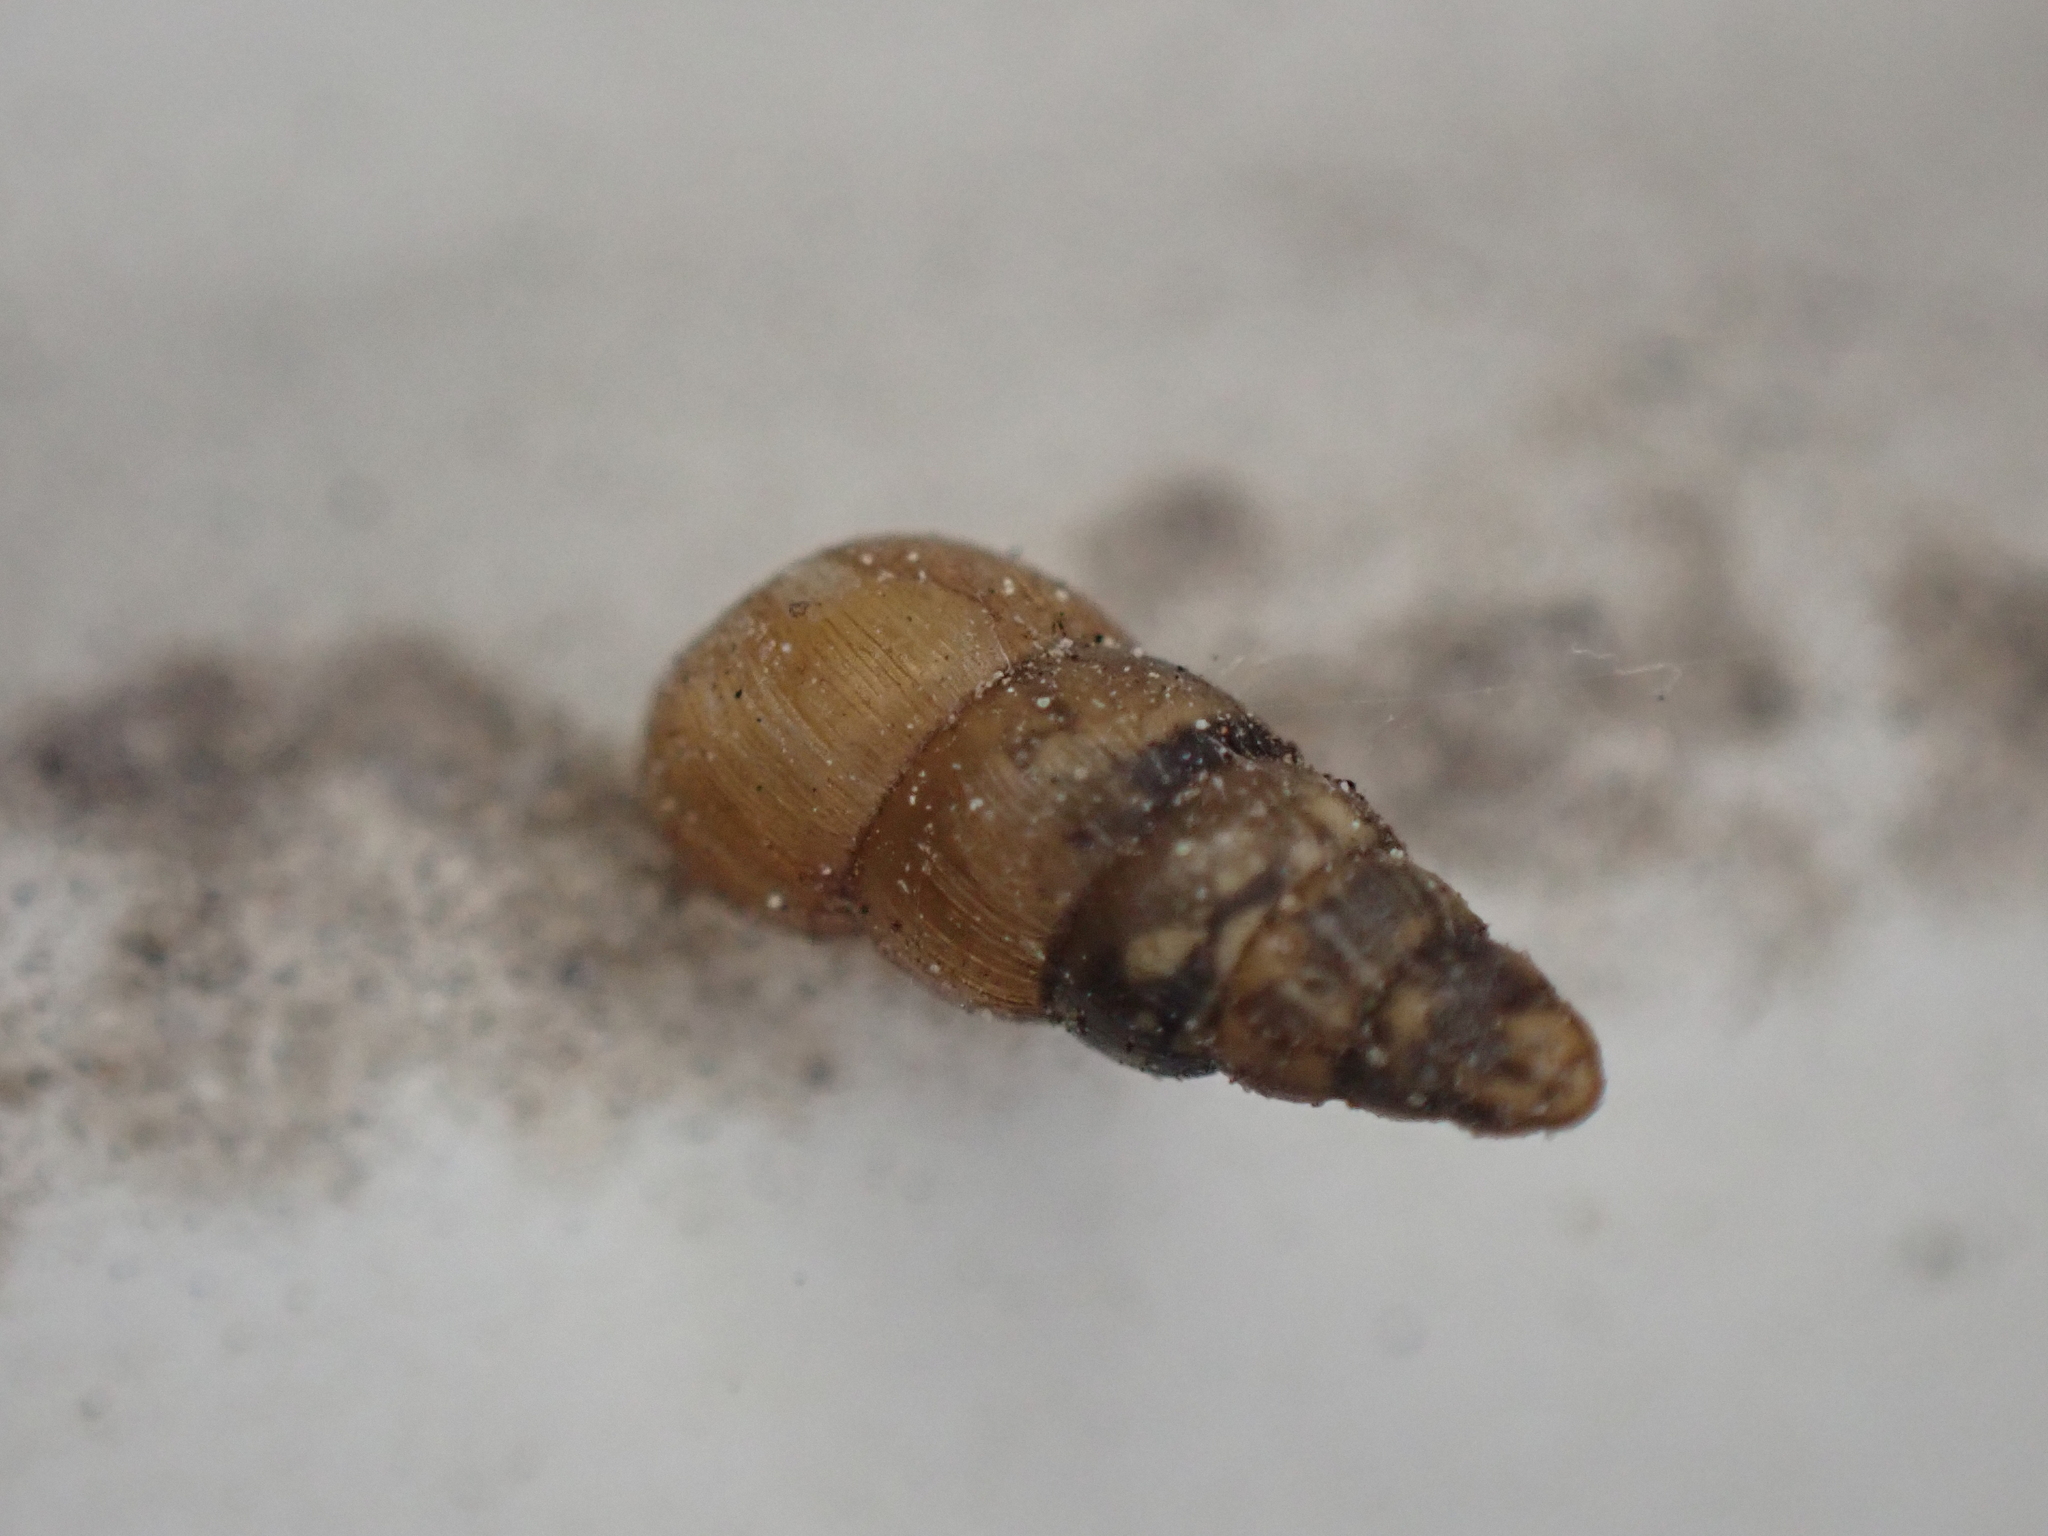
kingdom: Animalia
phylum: Mollusca
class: Gastropoda
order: Stylommatophora
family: Clausiliidae
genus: Balea
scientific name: Balea heydeni
